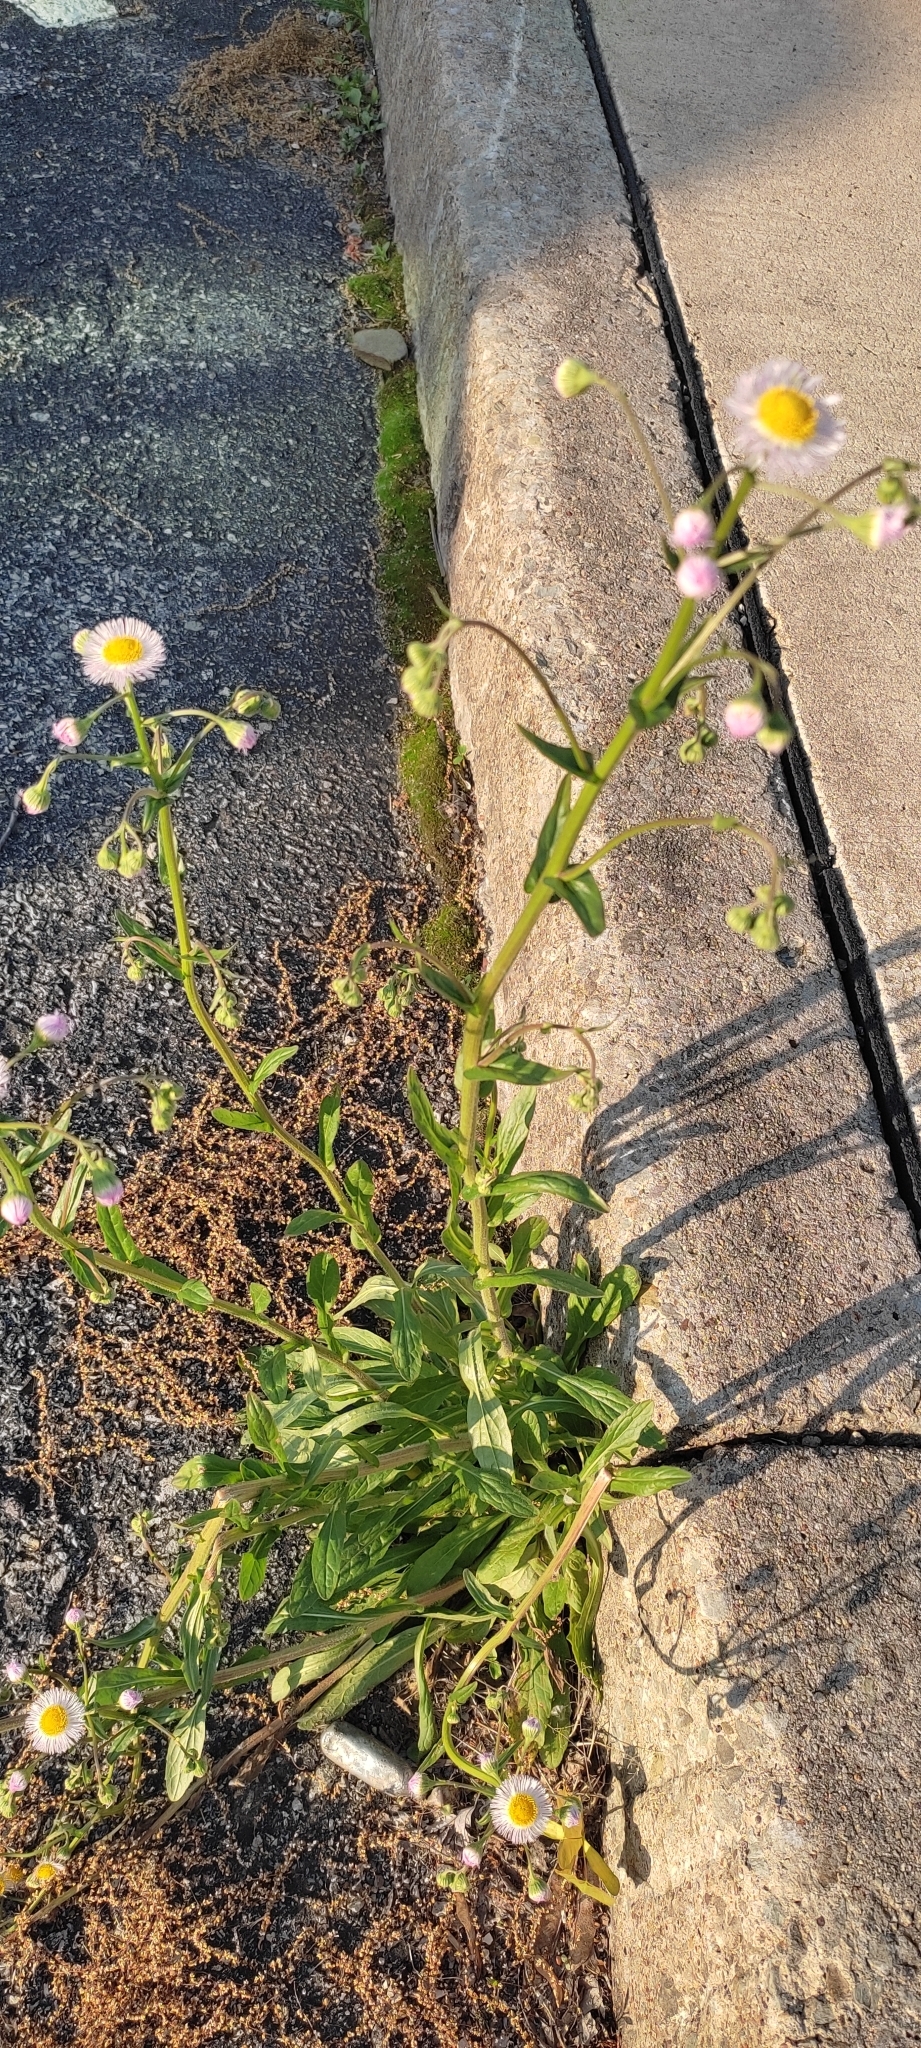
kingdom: Plantae
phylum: Tracheophyta
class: Magnoliopsida
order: Asterales
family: Asteraceae
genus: Erigeron
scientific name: Erigeron philadelphicus
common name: Robin's-plantain
